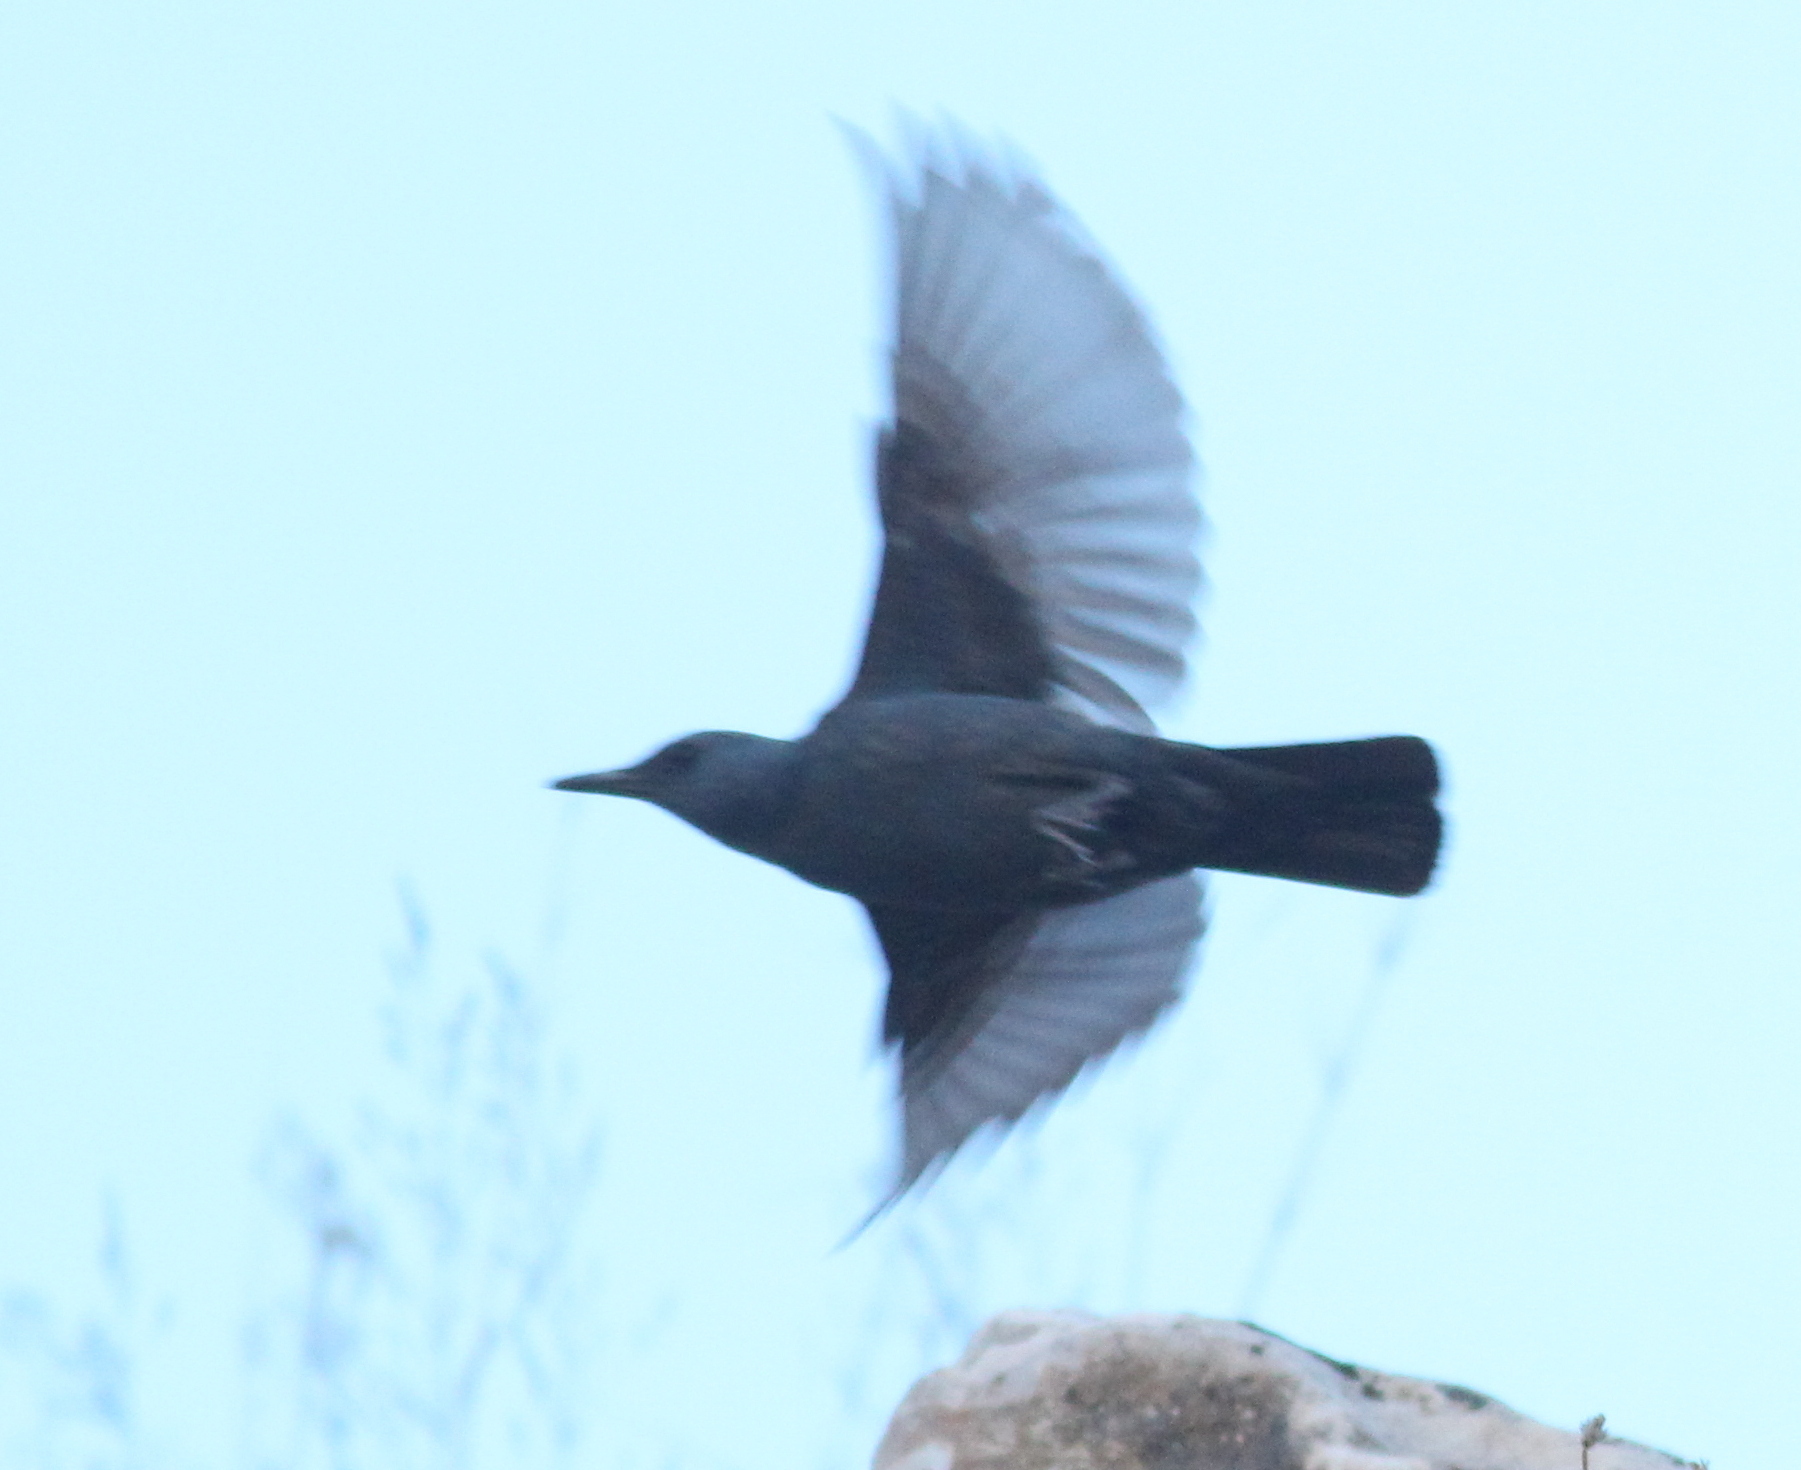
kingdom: Animalia
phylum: Chordata
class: Aves
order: Passeriformes
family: Muscicapidae
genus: Monticola
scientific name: Monticola solitarius
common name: Blue rock thrush
